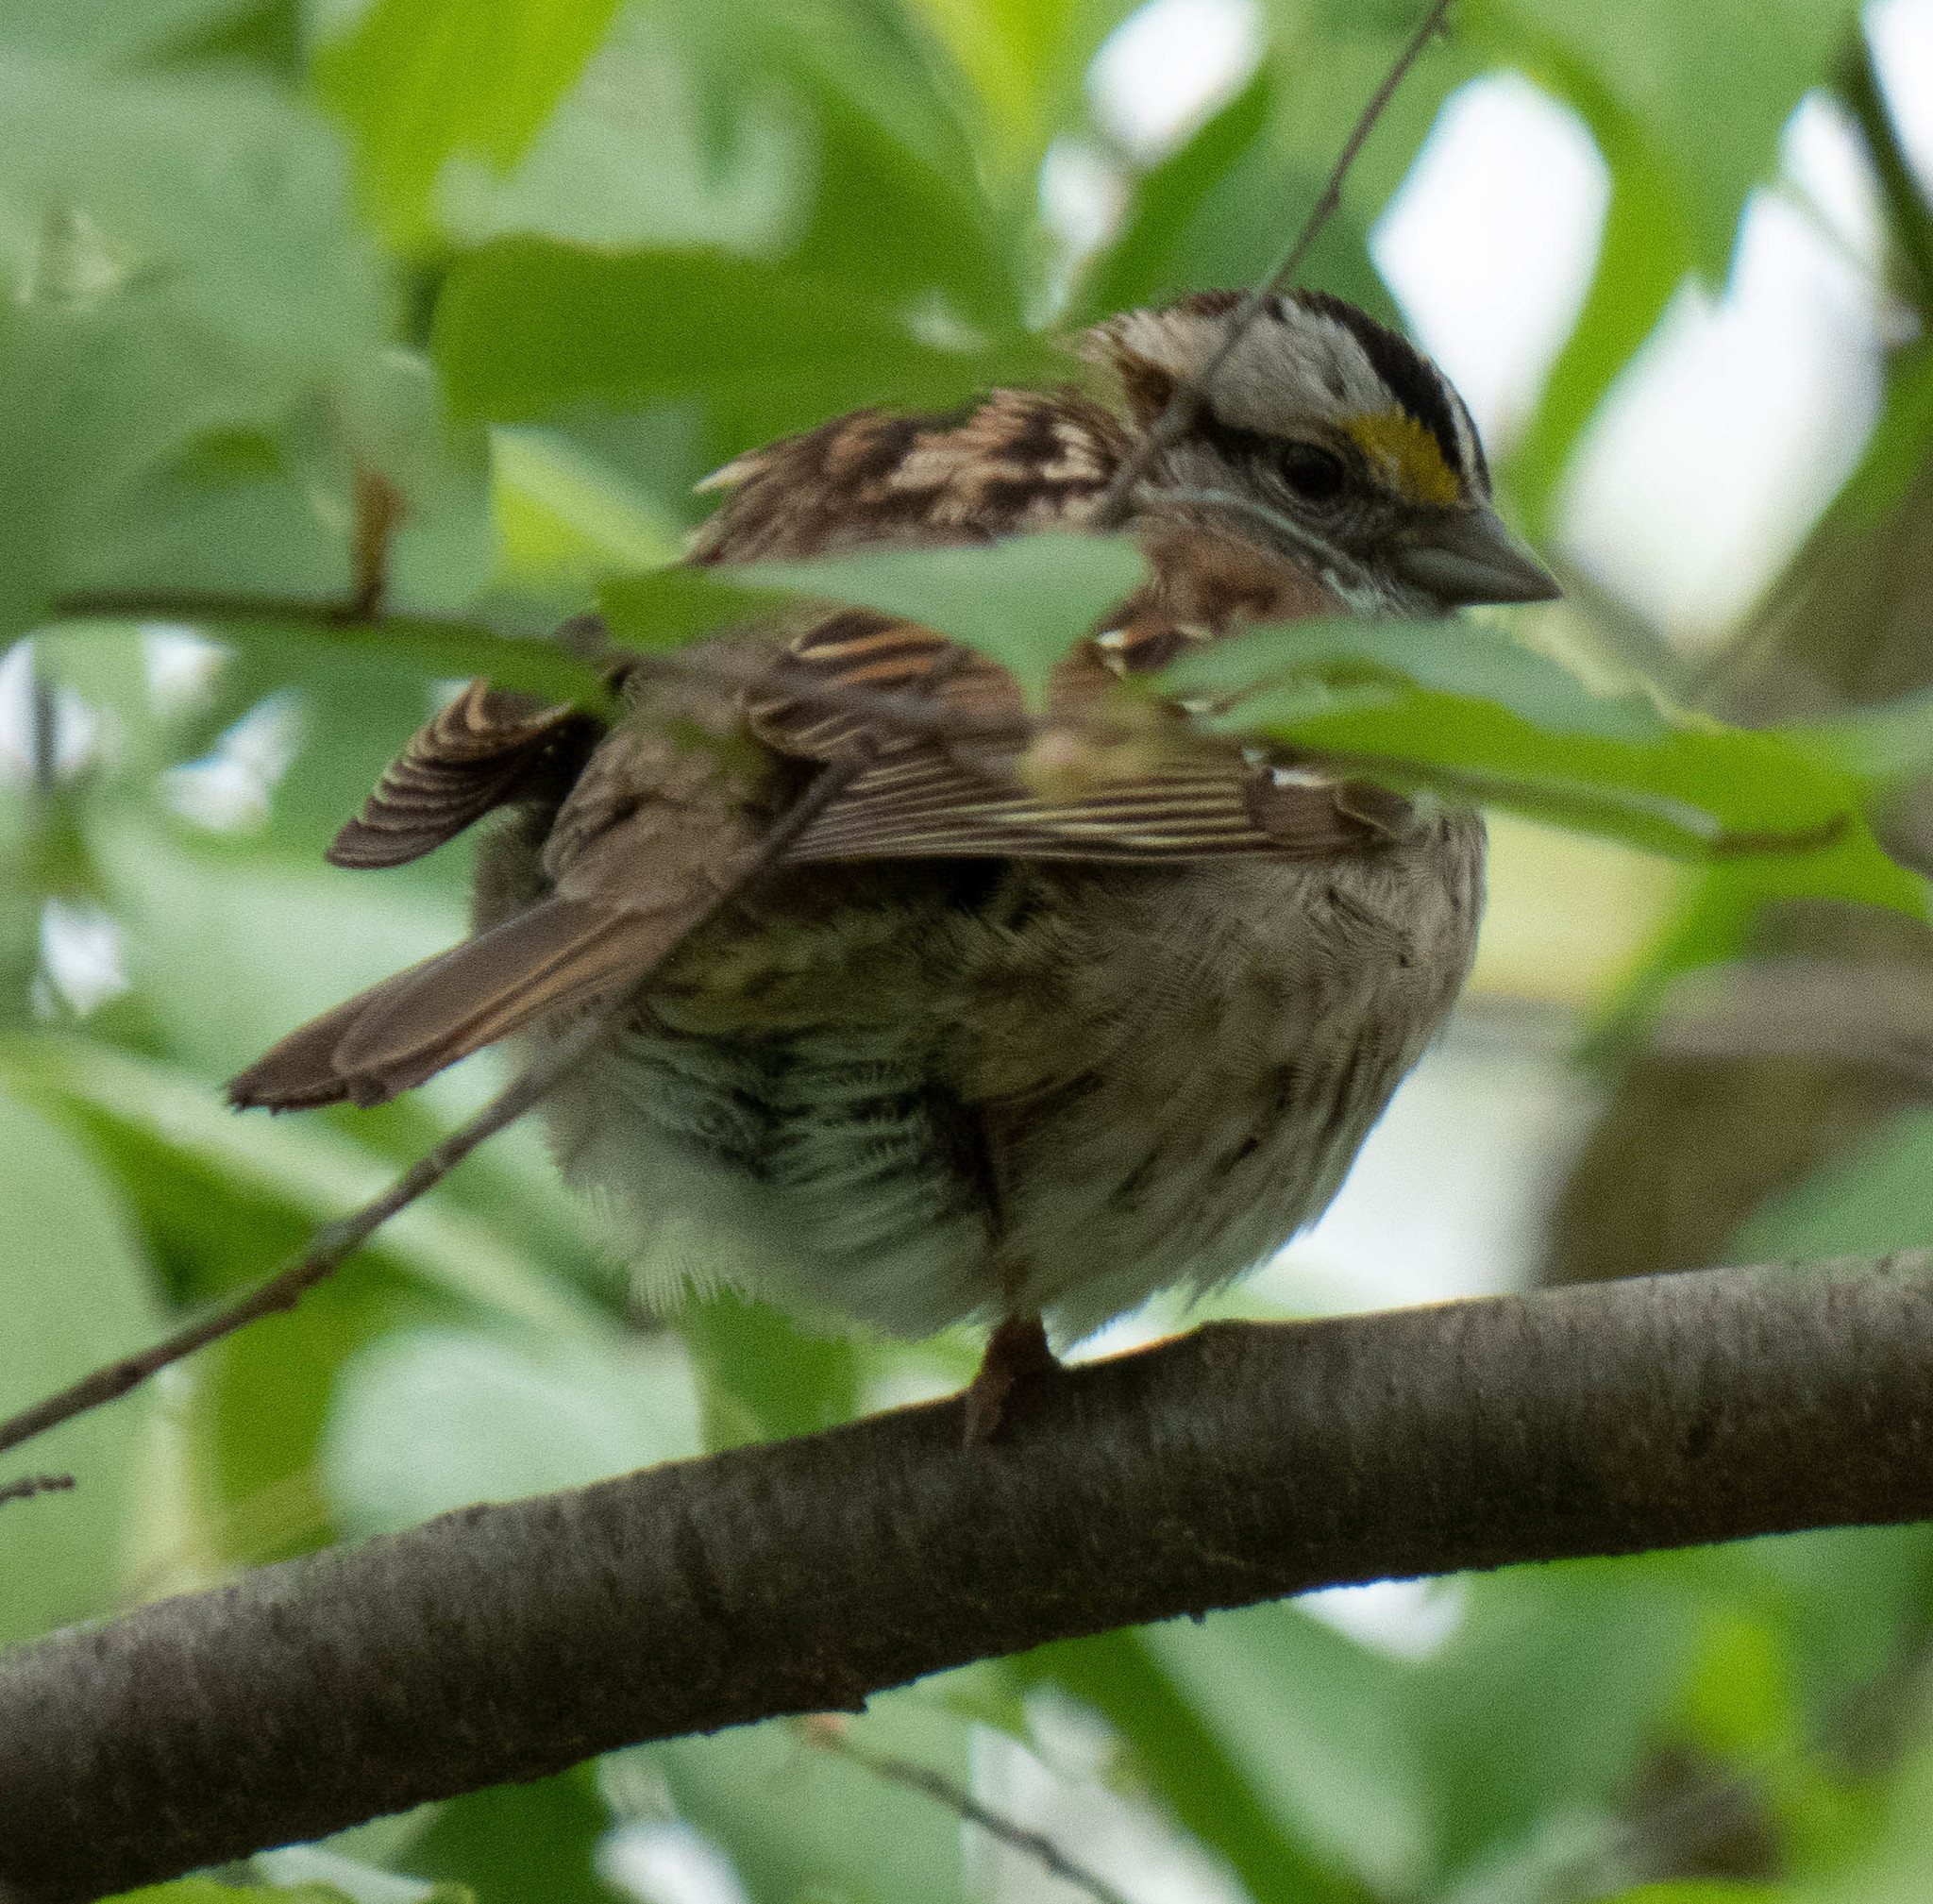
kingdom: Animalia
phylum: Chordata
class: Aves
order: Passeriformes
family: Passerellidae
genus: Zonotrichia
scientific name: Zonotrichia albicollis
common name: White-throated sparrow
